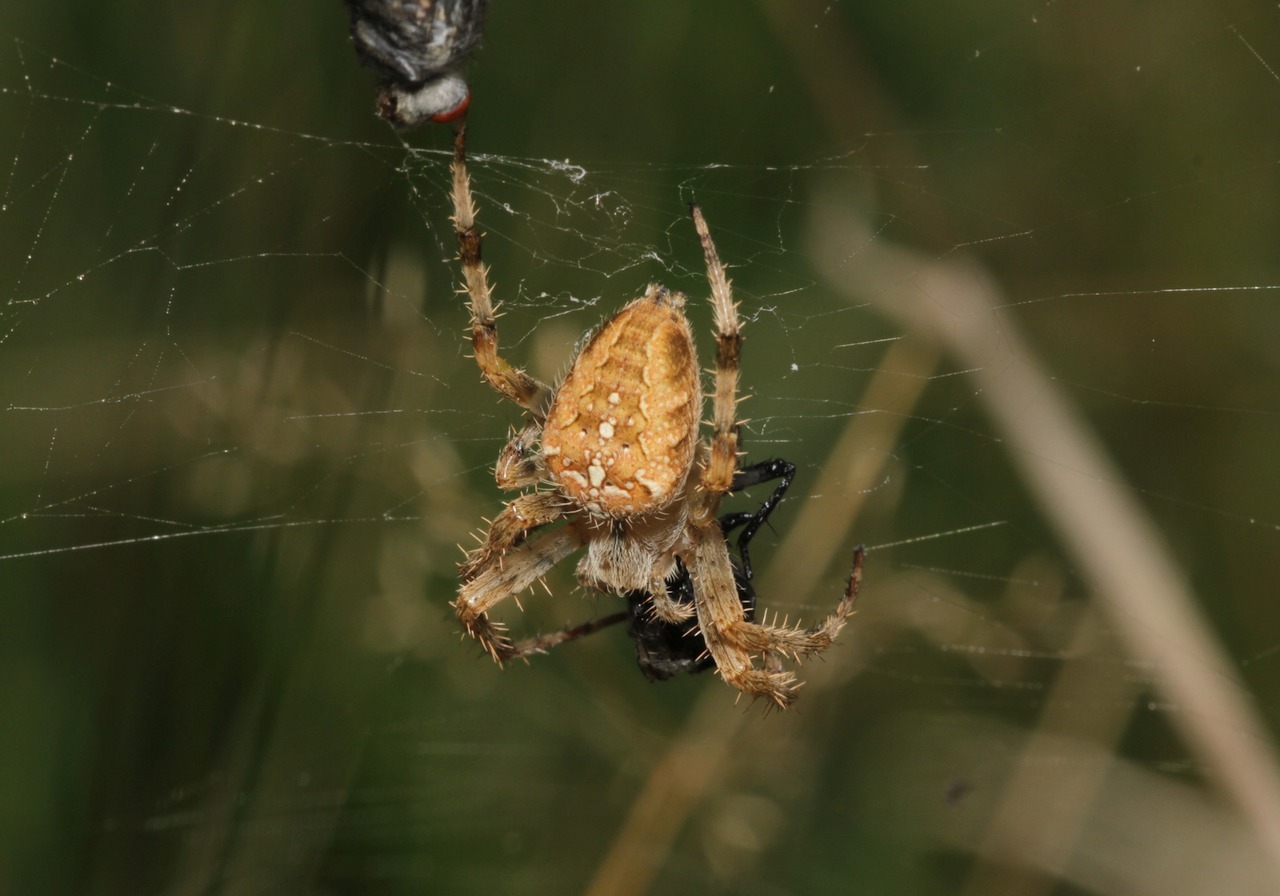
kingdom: Animalia
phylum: Arthropoda
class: Arachnida
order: Araneae
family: Araneidae
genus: Araneus
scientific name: Araneus diadematus
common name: Cross orbweaver
